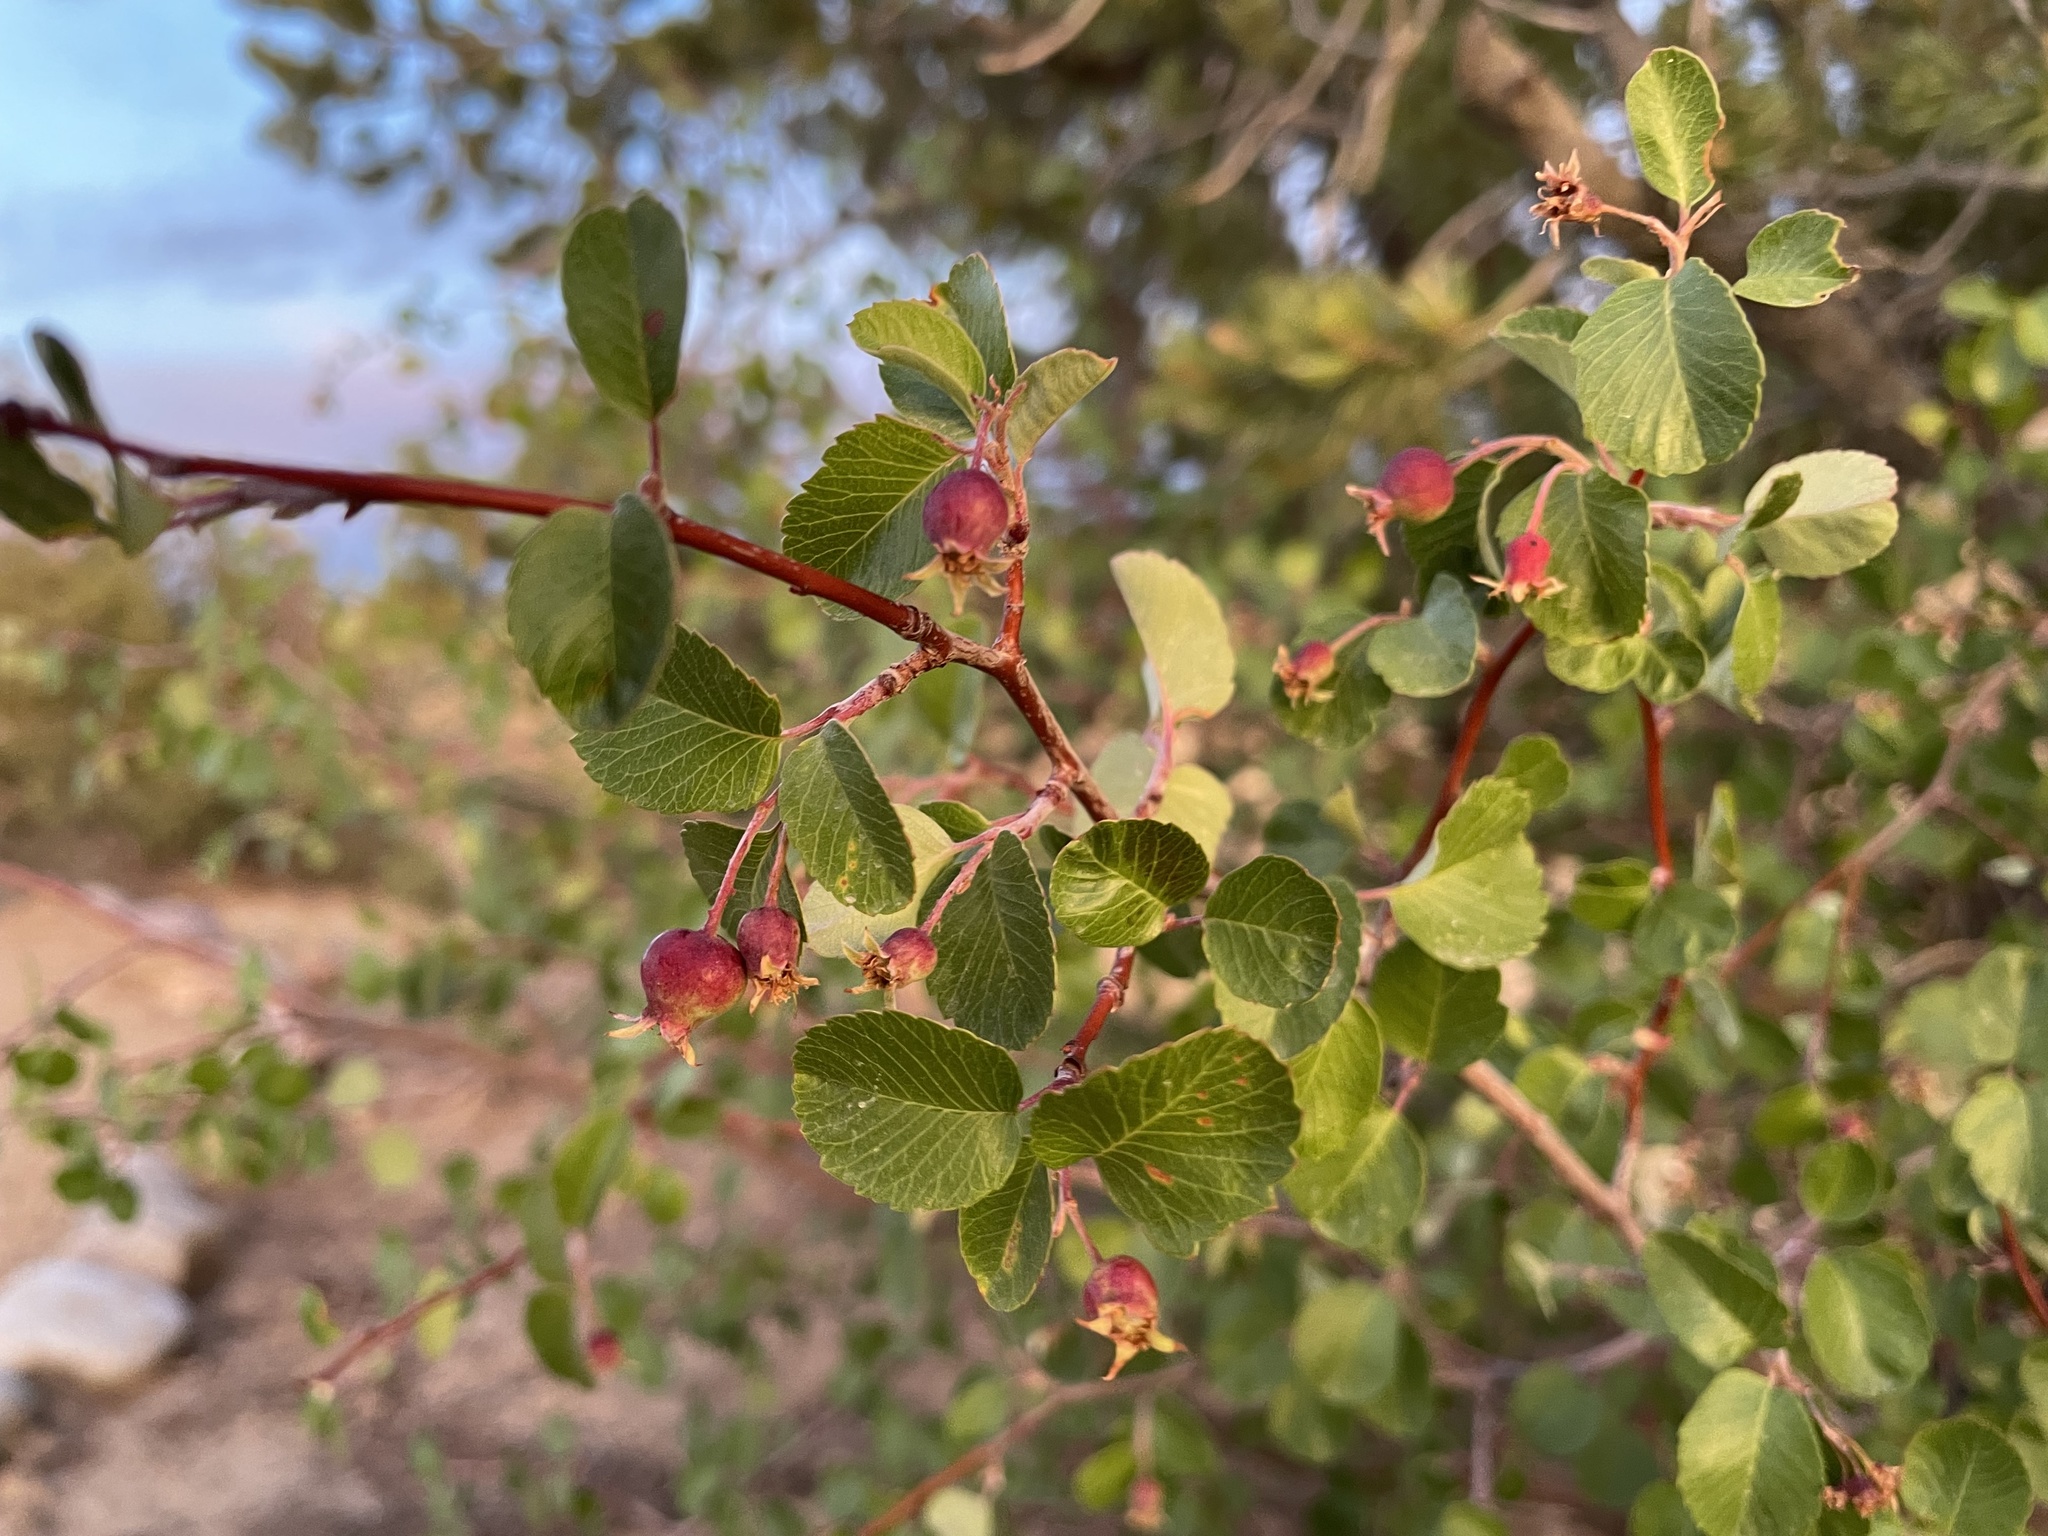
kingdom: Plantae
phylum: Tracheophyta
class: Magnoliopsida
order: Rosales
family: Rosaceae
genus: Amelanchier
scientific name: Amelanchier utahensis
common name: Utah serviceberry
